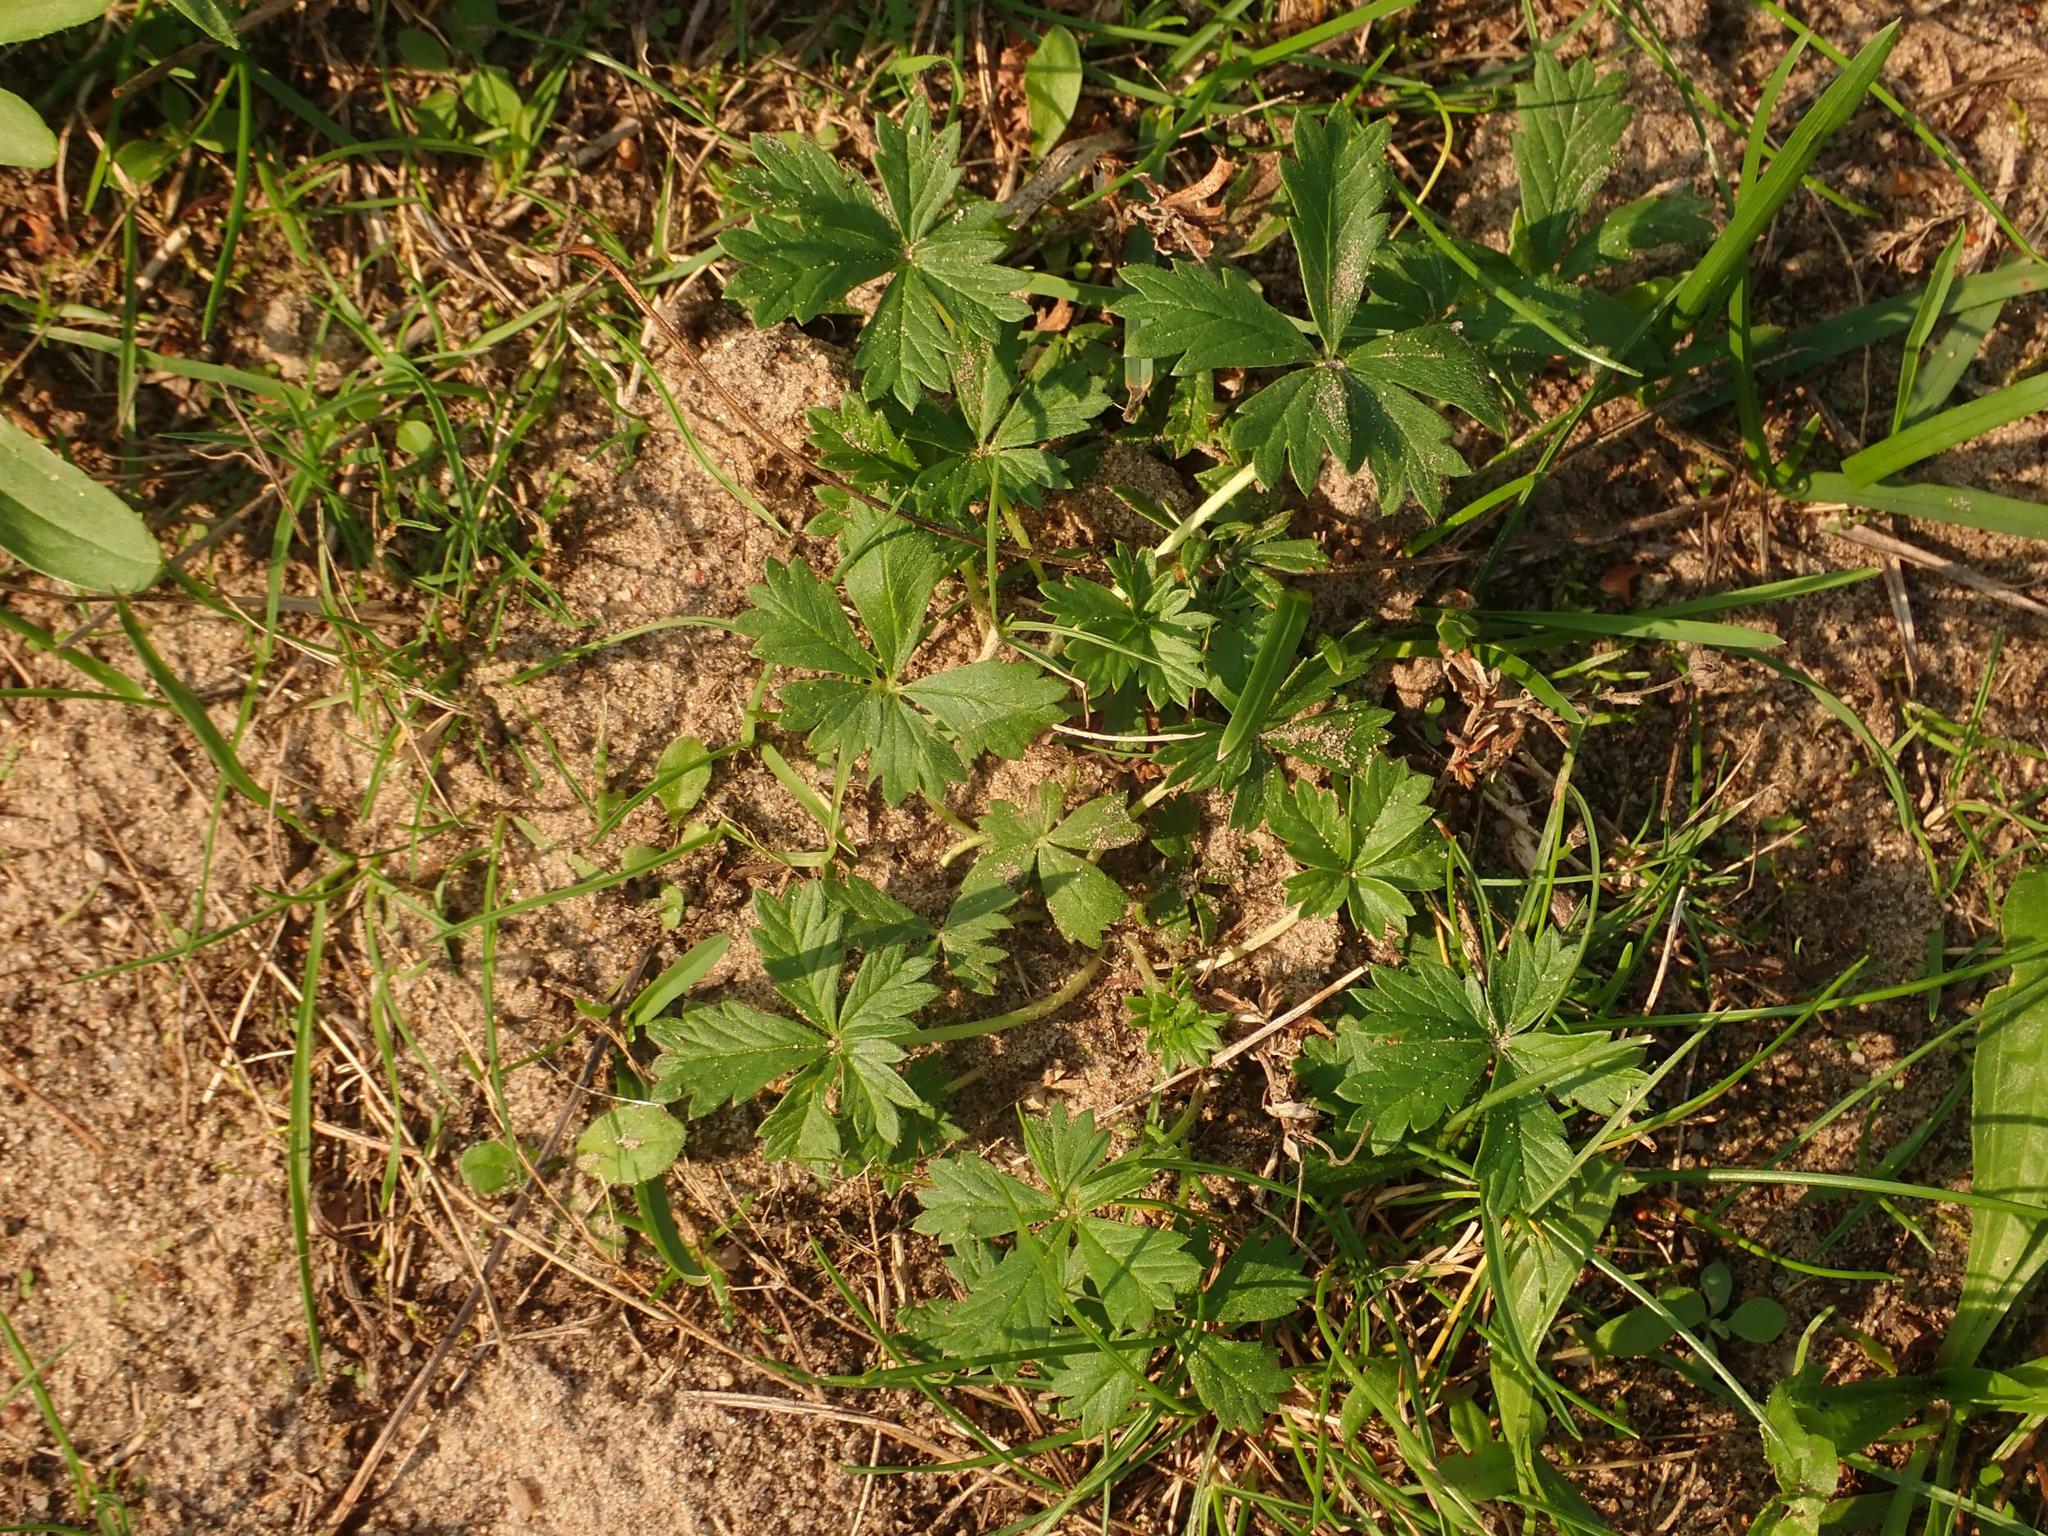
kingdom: Plantae
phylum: Tracheophyta
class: Magnoliopsida
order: Rosales
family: Rosaceae
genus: Potentilla
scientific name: Potentilla argentea
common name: Hoary cinquefoil
